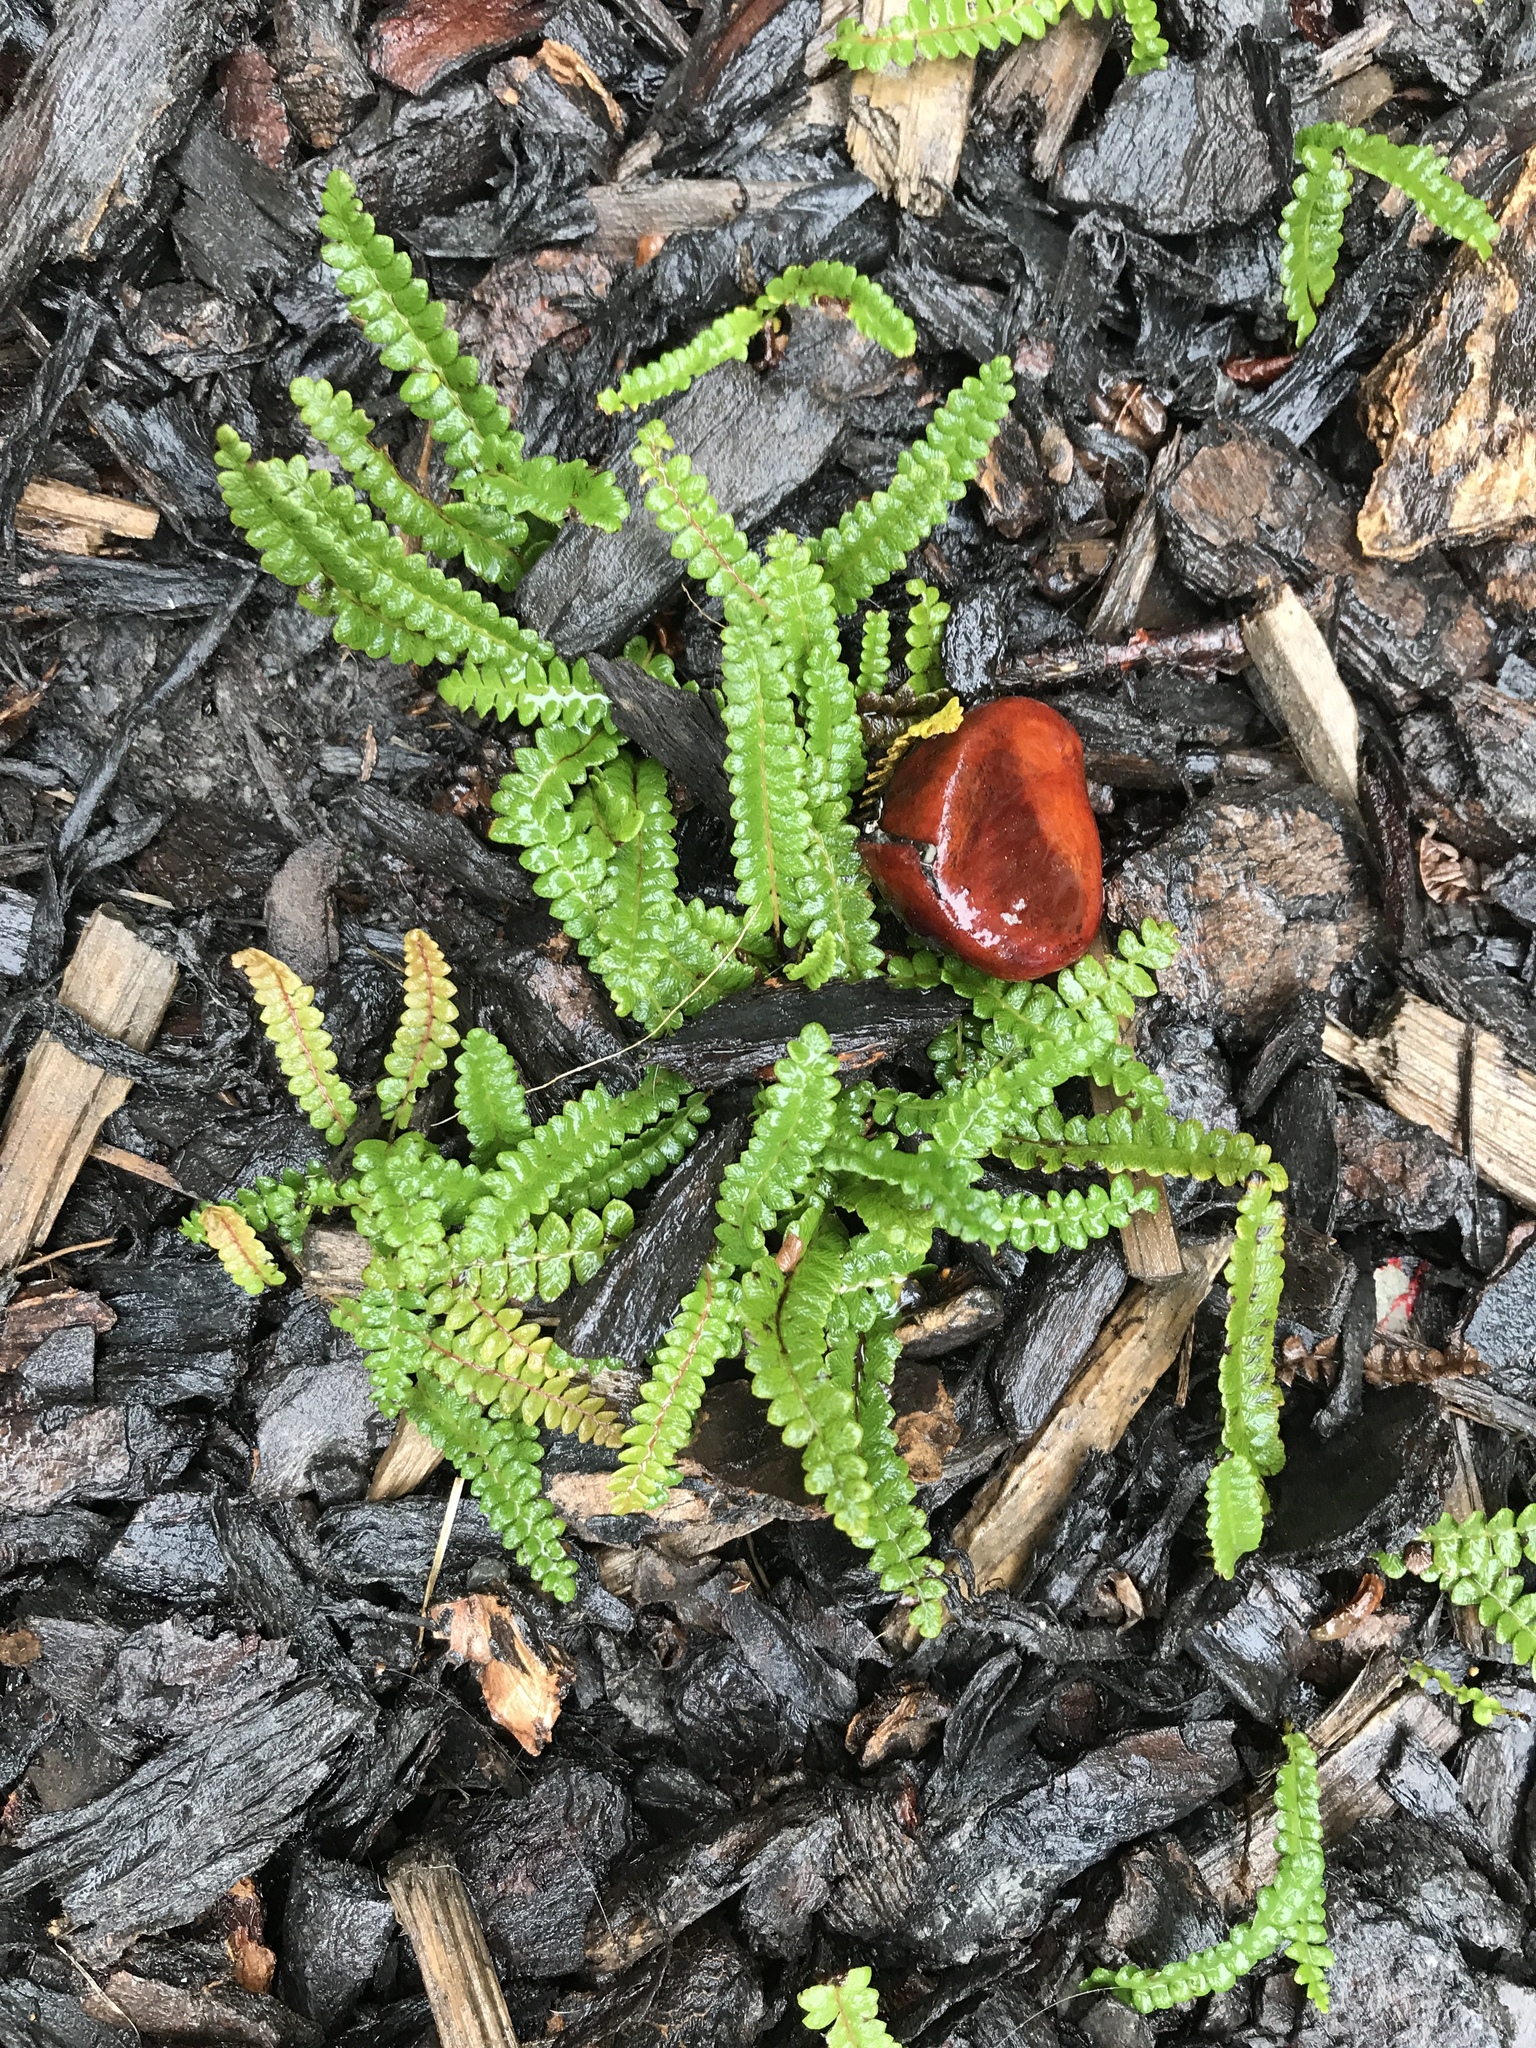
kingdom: Plantae
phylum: Tracheophyta
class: Polypodiopsida
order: Polypodiales
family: Blechnaceae
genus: Austroblechnum
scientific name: Austroblechnum penna-marina
